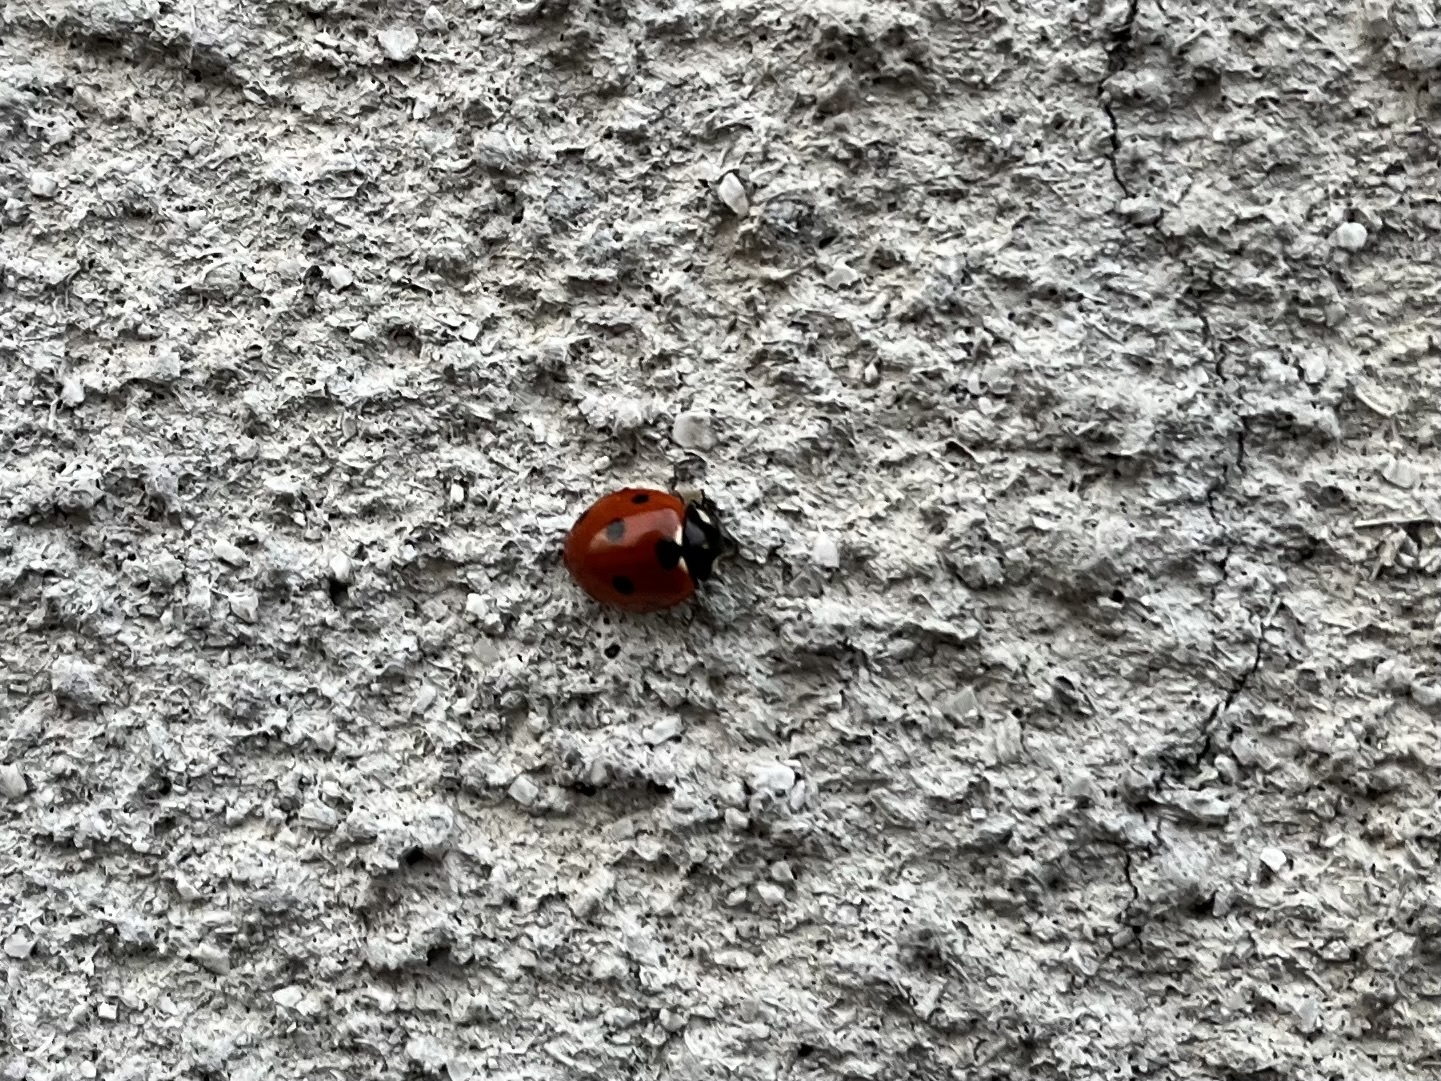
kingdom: Animalia
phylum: Arthropoda
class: Insecta
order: Coleoptera
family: Coccinellidae
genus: Coccinella
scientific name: Coccinella septempunctata
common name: Sevenspotted lady beetle
